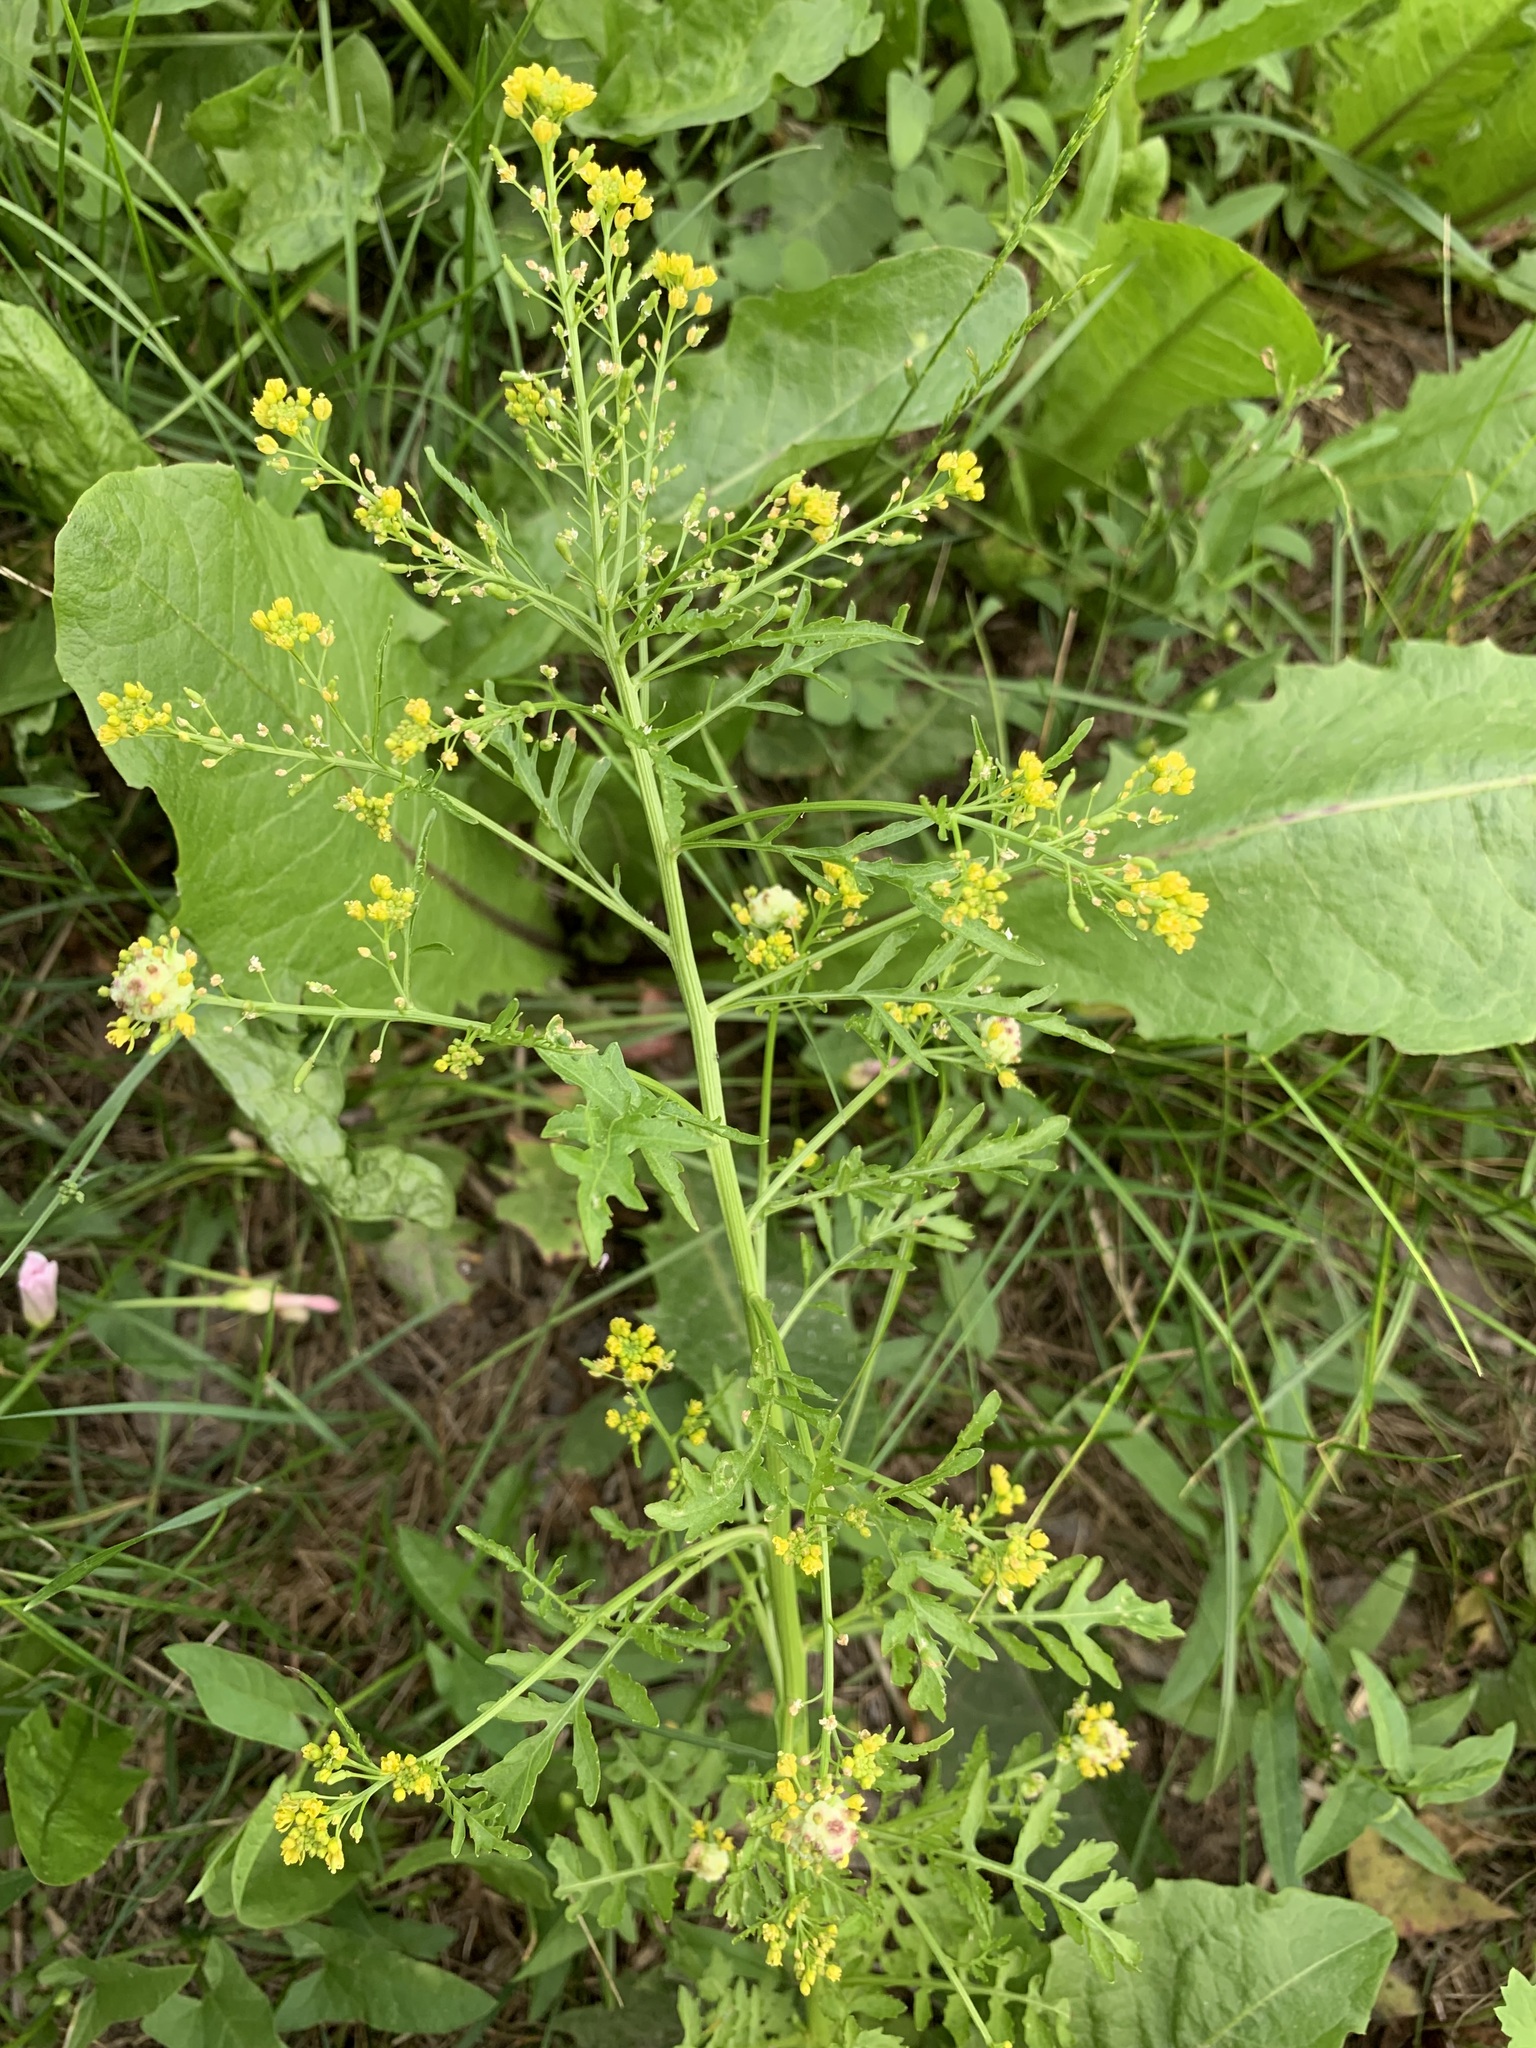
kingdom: Plantae
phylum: Tracheophyta
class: Magnoliopsida
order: Brassicales
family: Brassicaceae
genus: Rorippa
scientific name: Rorippa palustris
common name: Marsh yellow-cress
